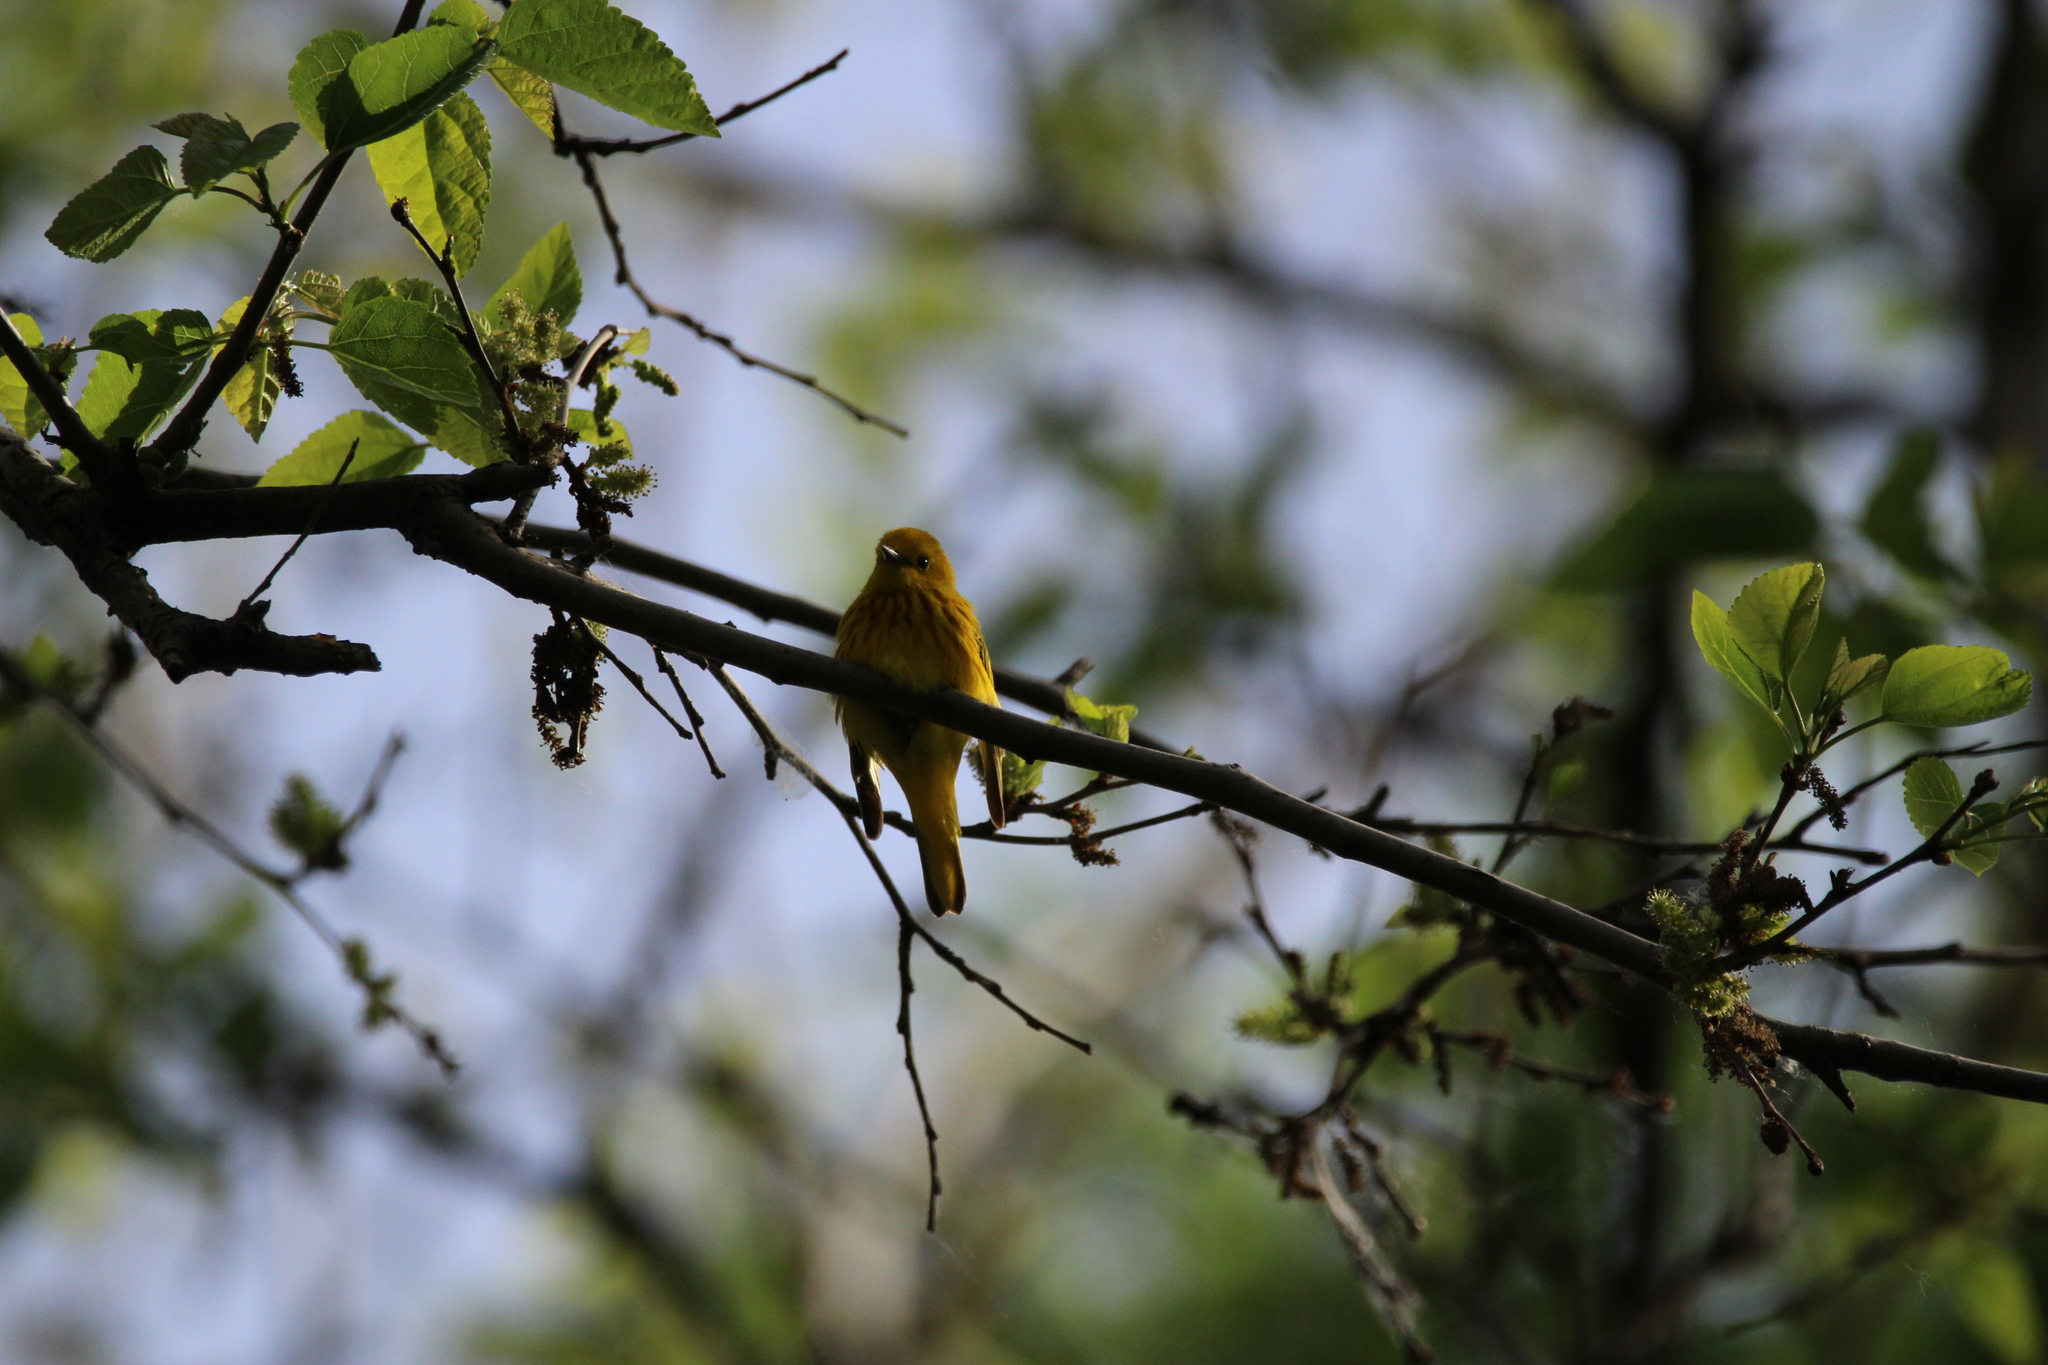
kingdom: Animalia
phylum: Chordata
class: Aves
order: Passeriformes
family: Parulidae
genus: Setophaga
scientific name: Setophaga petechia
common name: Yellow warbler
